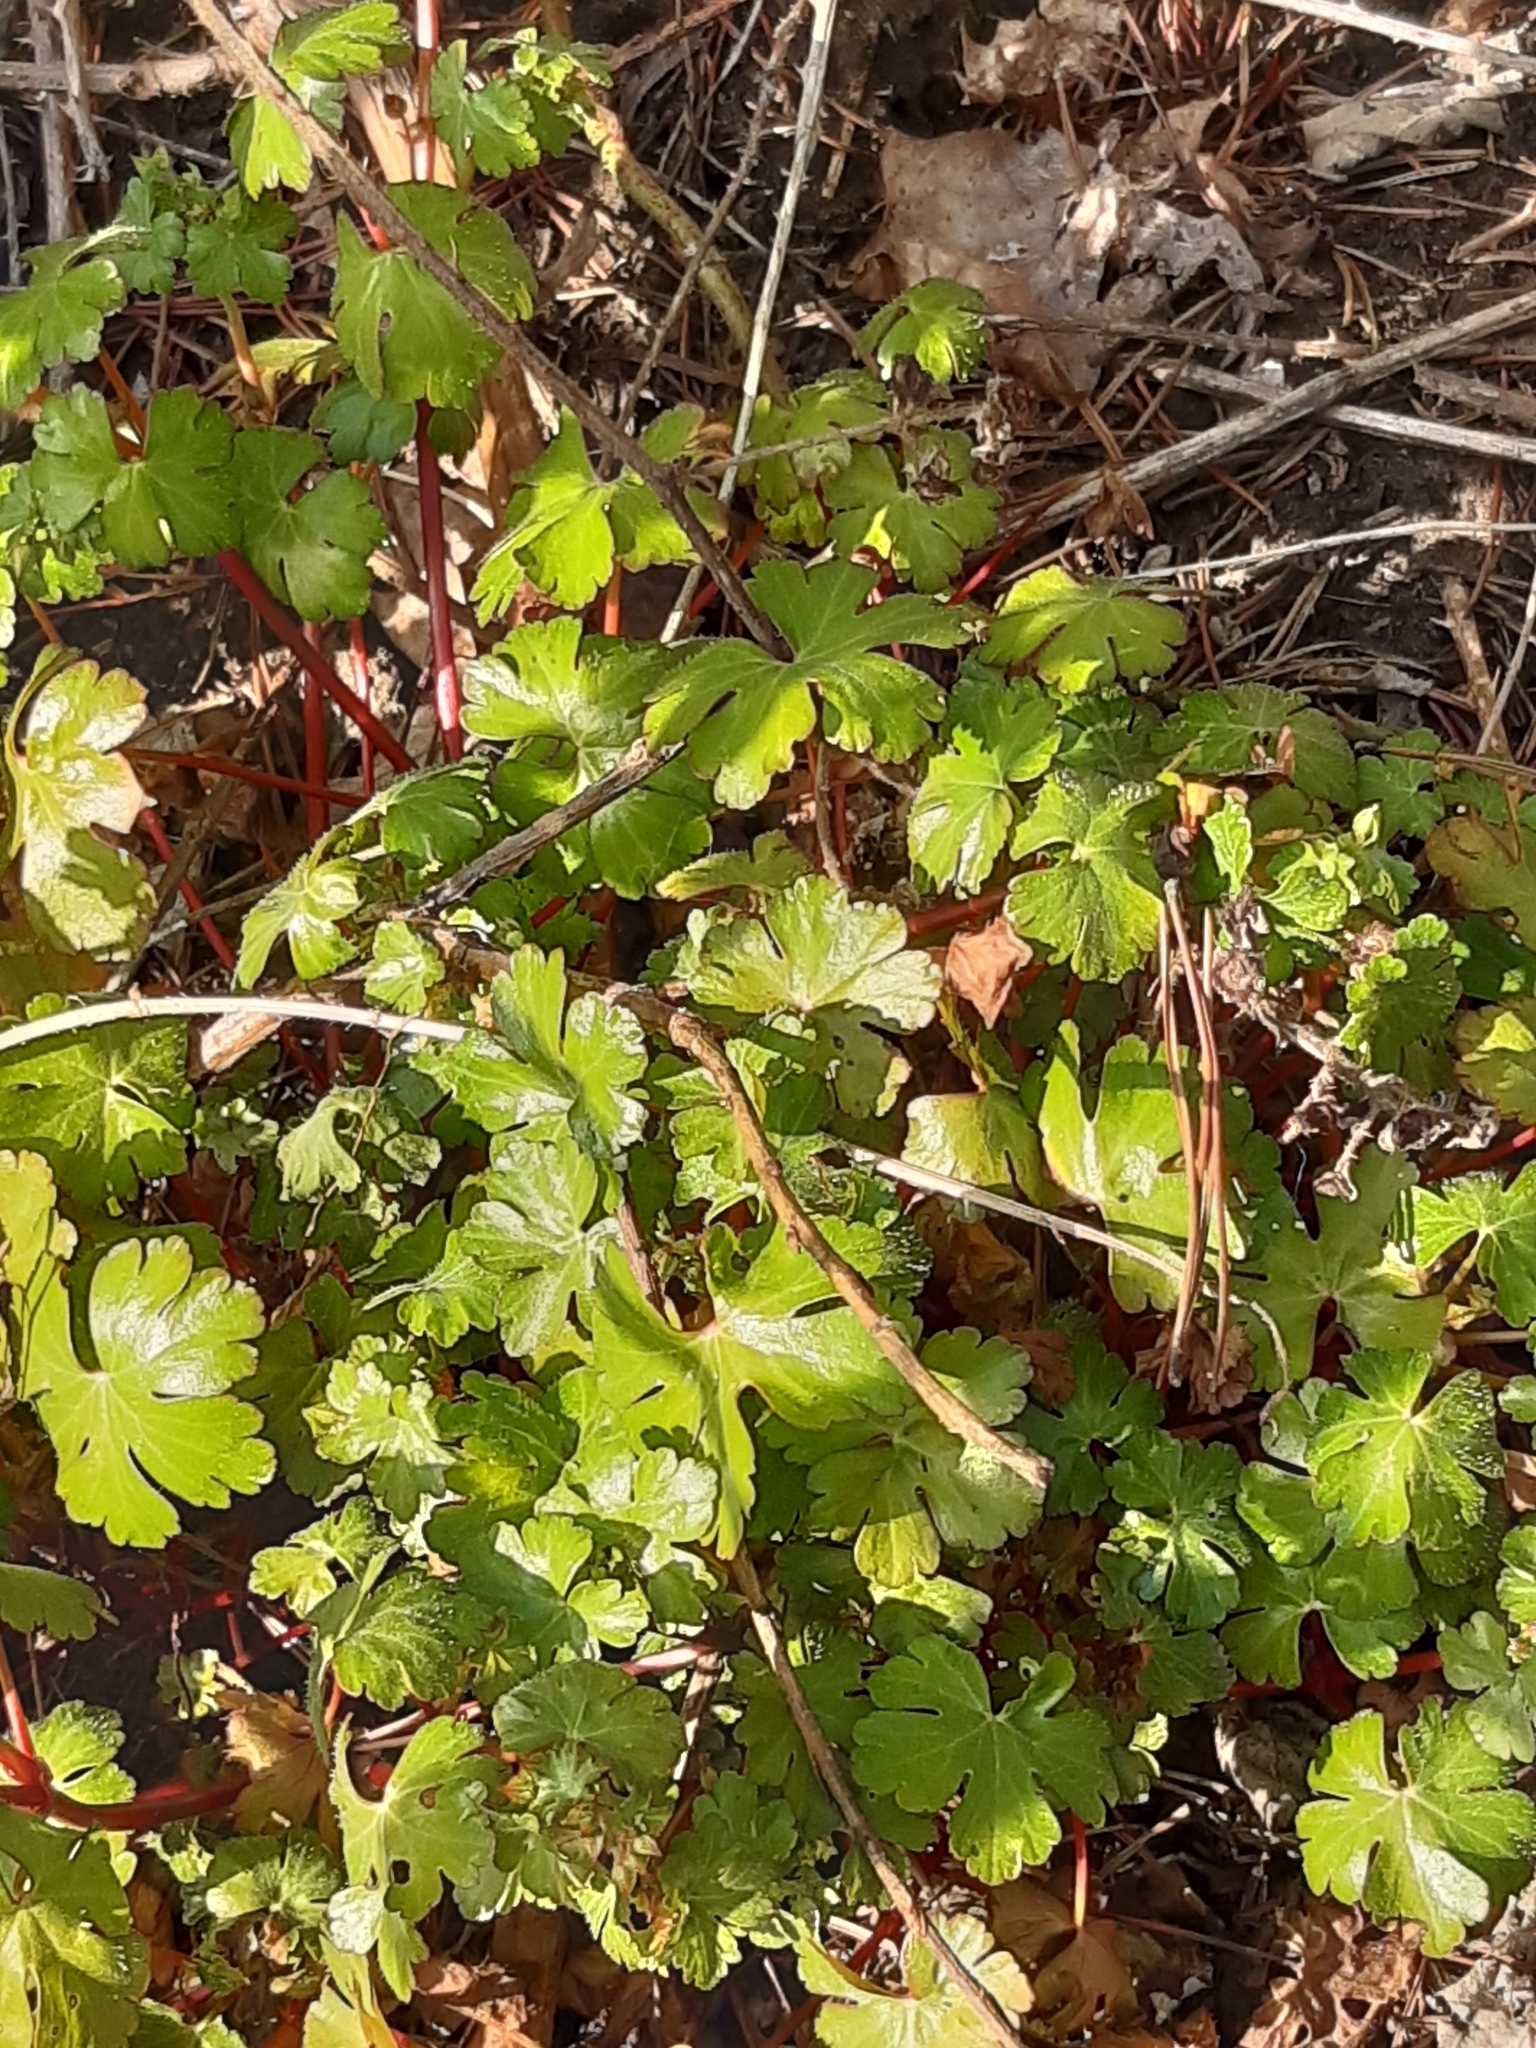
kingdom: Plantae
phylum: Tracheophyta
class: Magnoliopsida
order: Geraniales
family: Geraniaceae
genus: Geranium
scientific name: Geranium lucidum
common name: Shining crane's-bill
